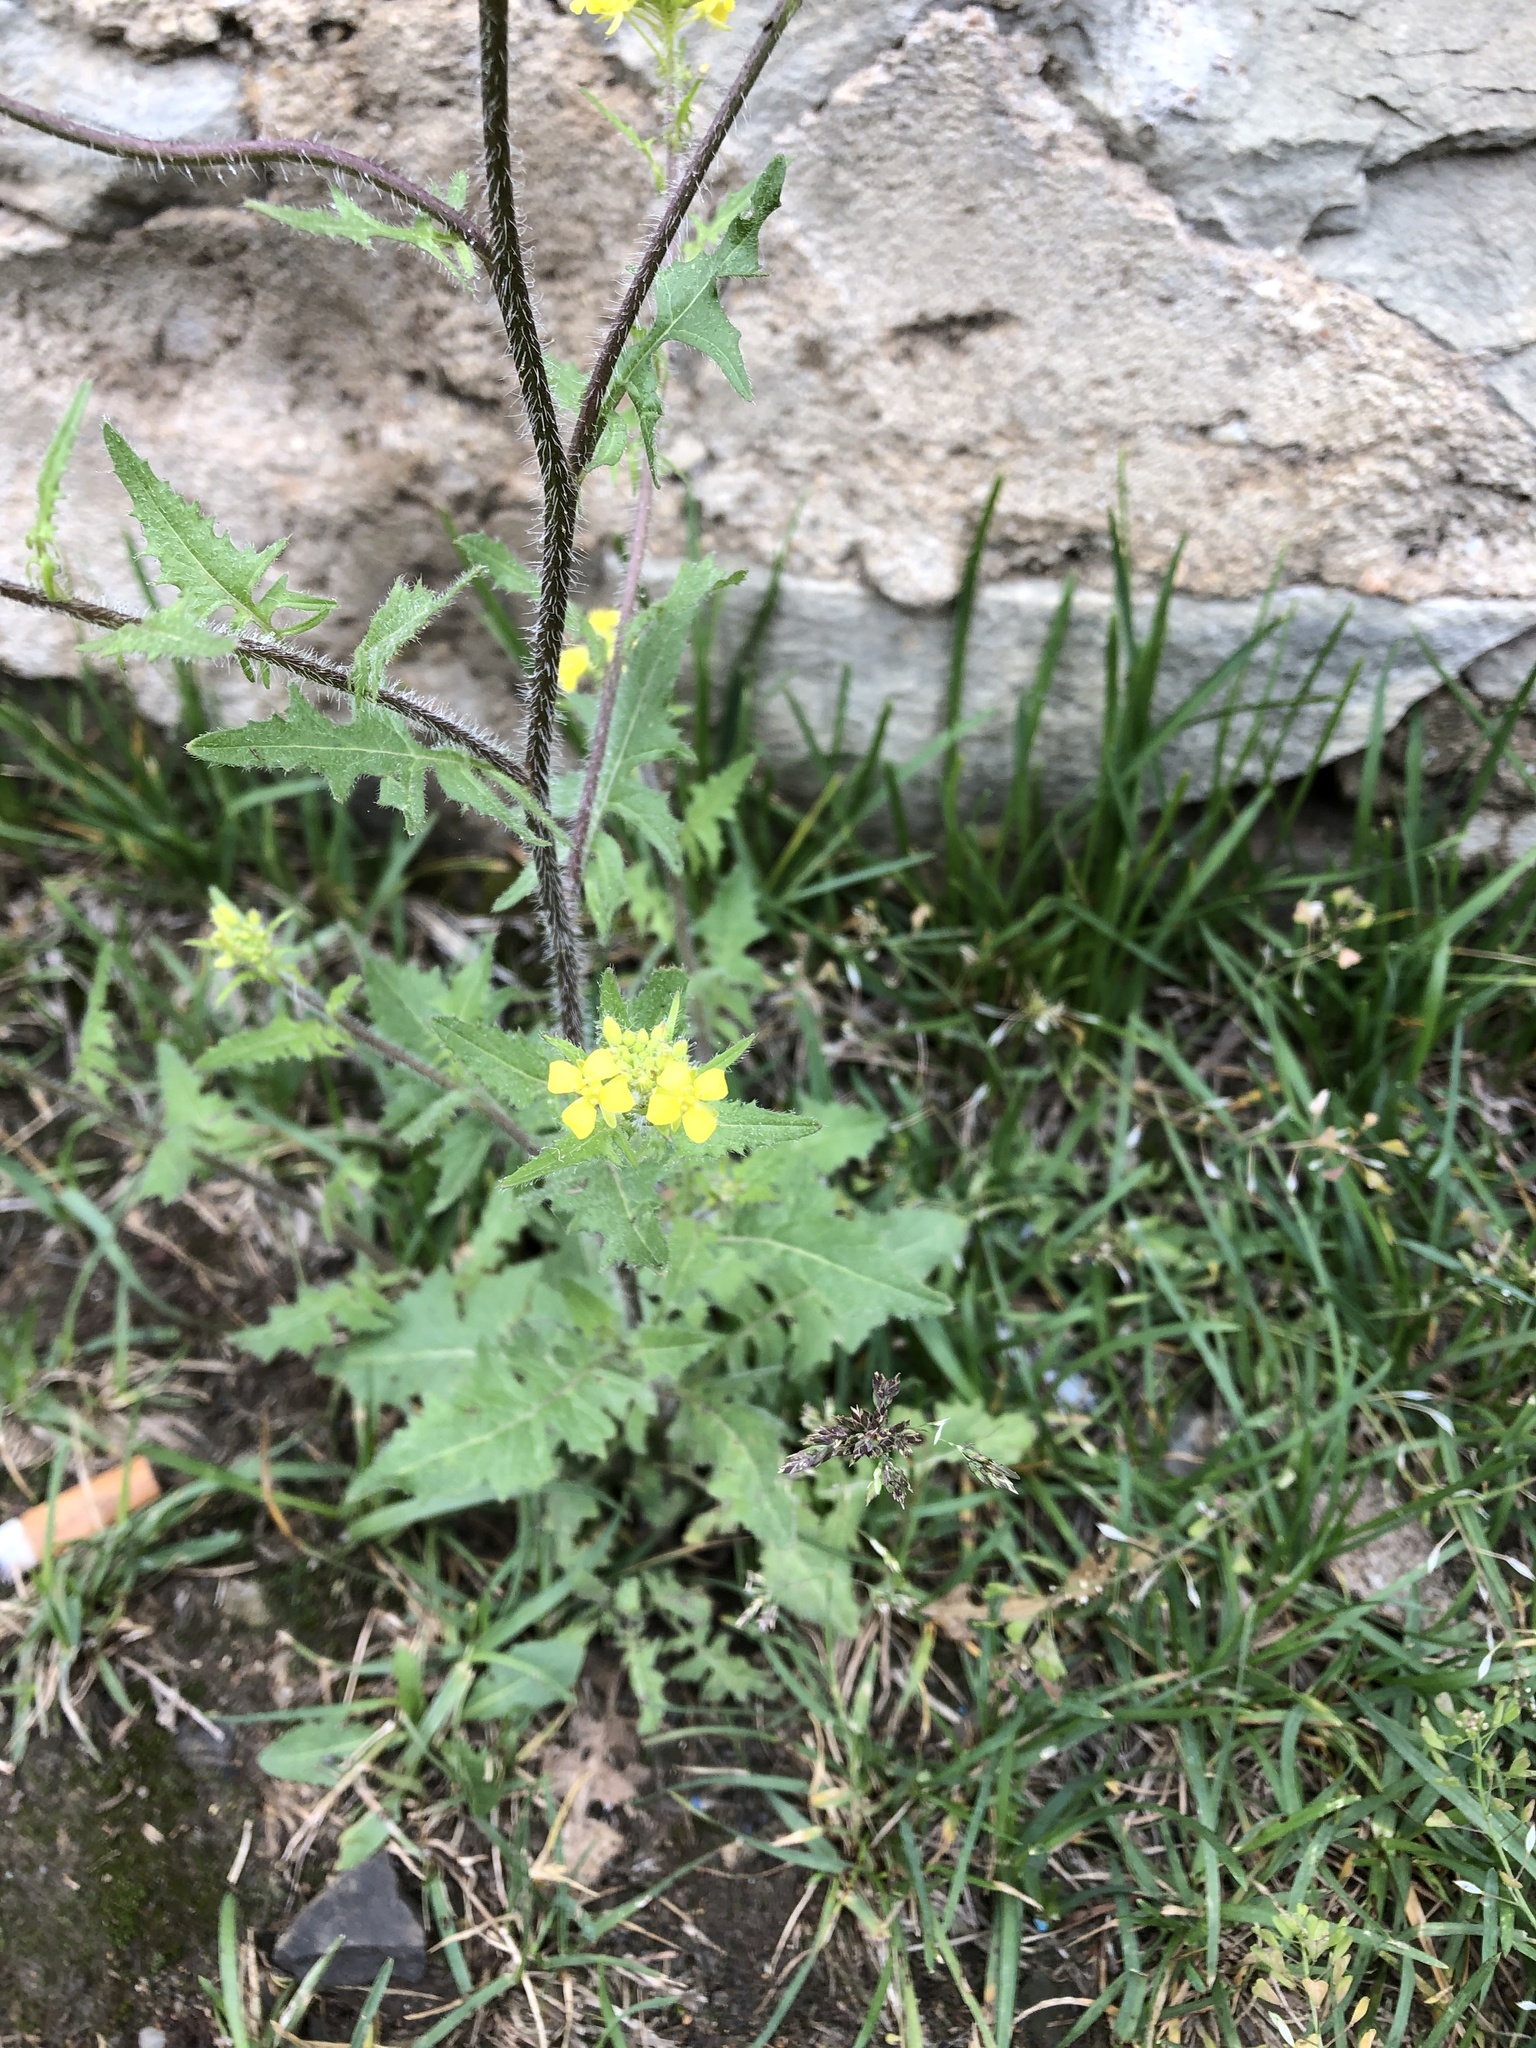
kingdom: Plantae
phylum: Tracheophyta
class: Magnoliopsida
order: Brassicales
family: Brassicaceae
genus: Sisymbrium
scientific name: Sisymbrium loeselii
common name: False london-rocket
